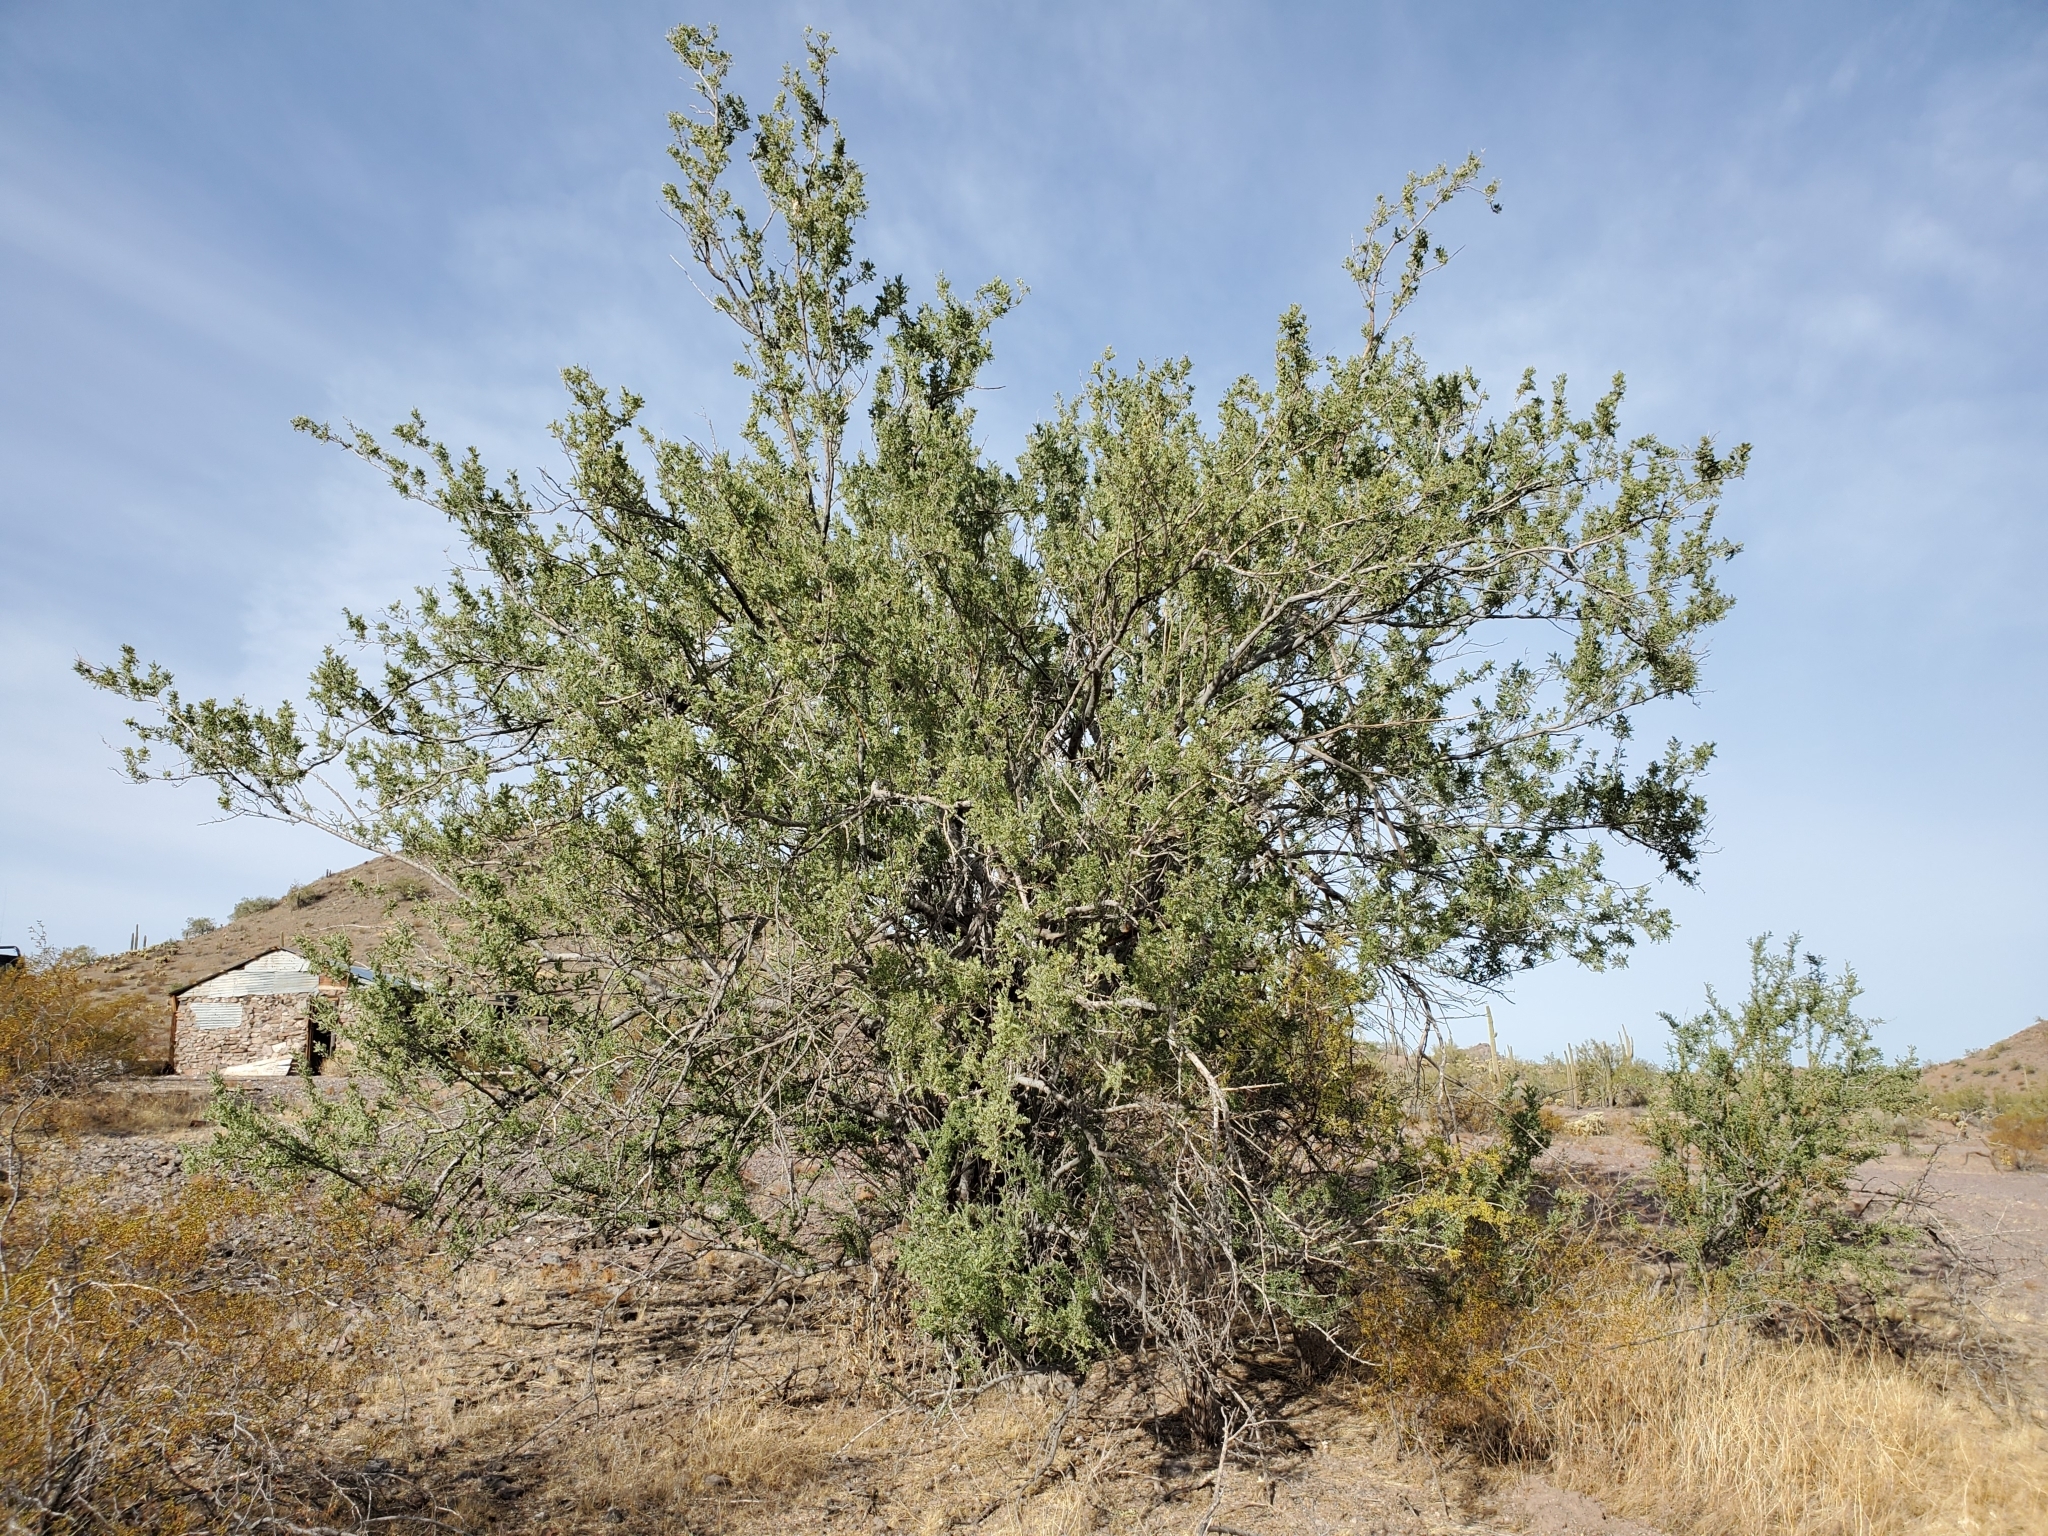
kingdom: Plantae
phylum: Tracheophyta
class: Magnoliopsida
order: Fabales
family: Fabaceae
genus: Olneya
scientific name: Olneya tesota
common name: Desert ironwood
